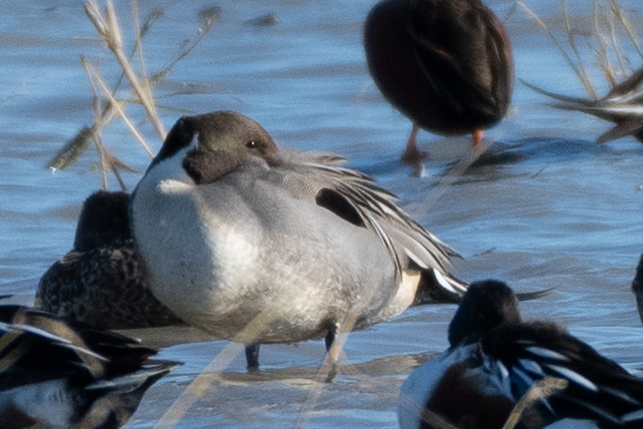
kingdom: Animalia
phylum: Chordata
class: Aves
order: Anseriformes
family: Anatidae
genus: Anas
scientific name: Anas acuta
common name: Northern pintail
